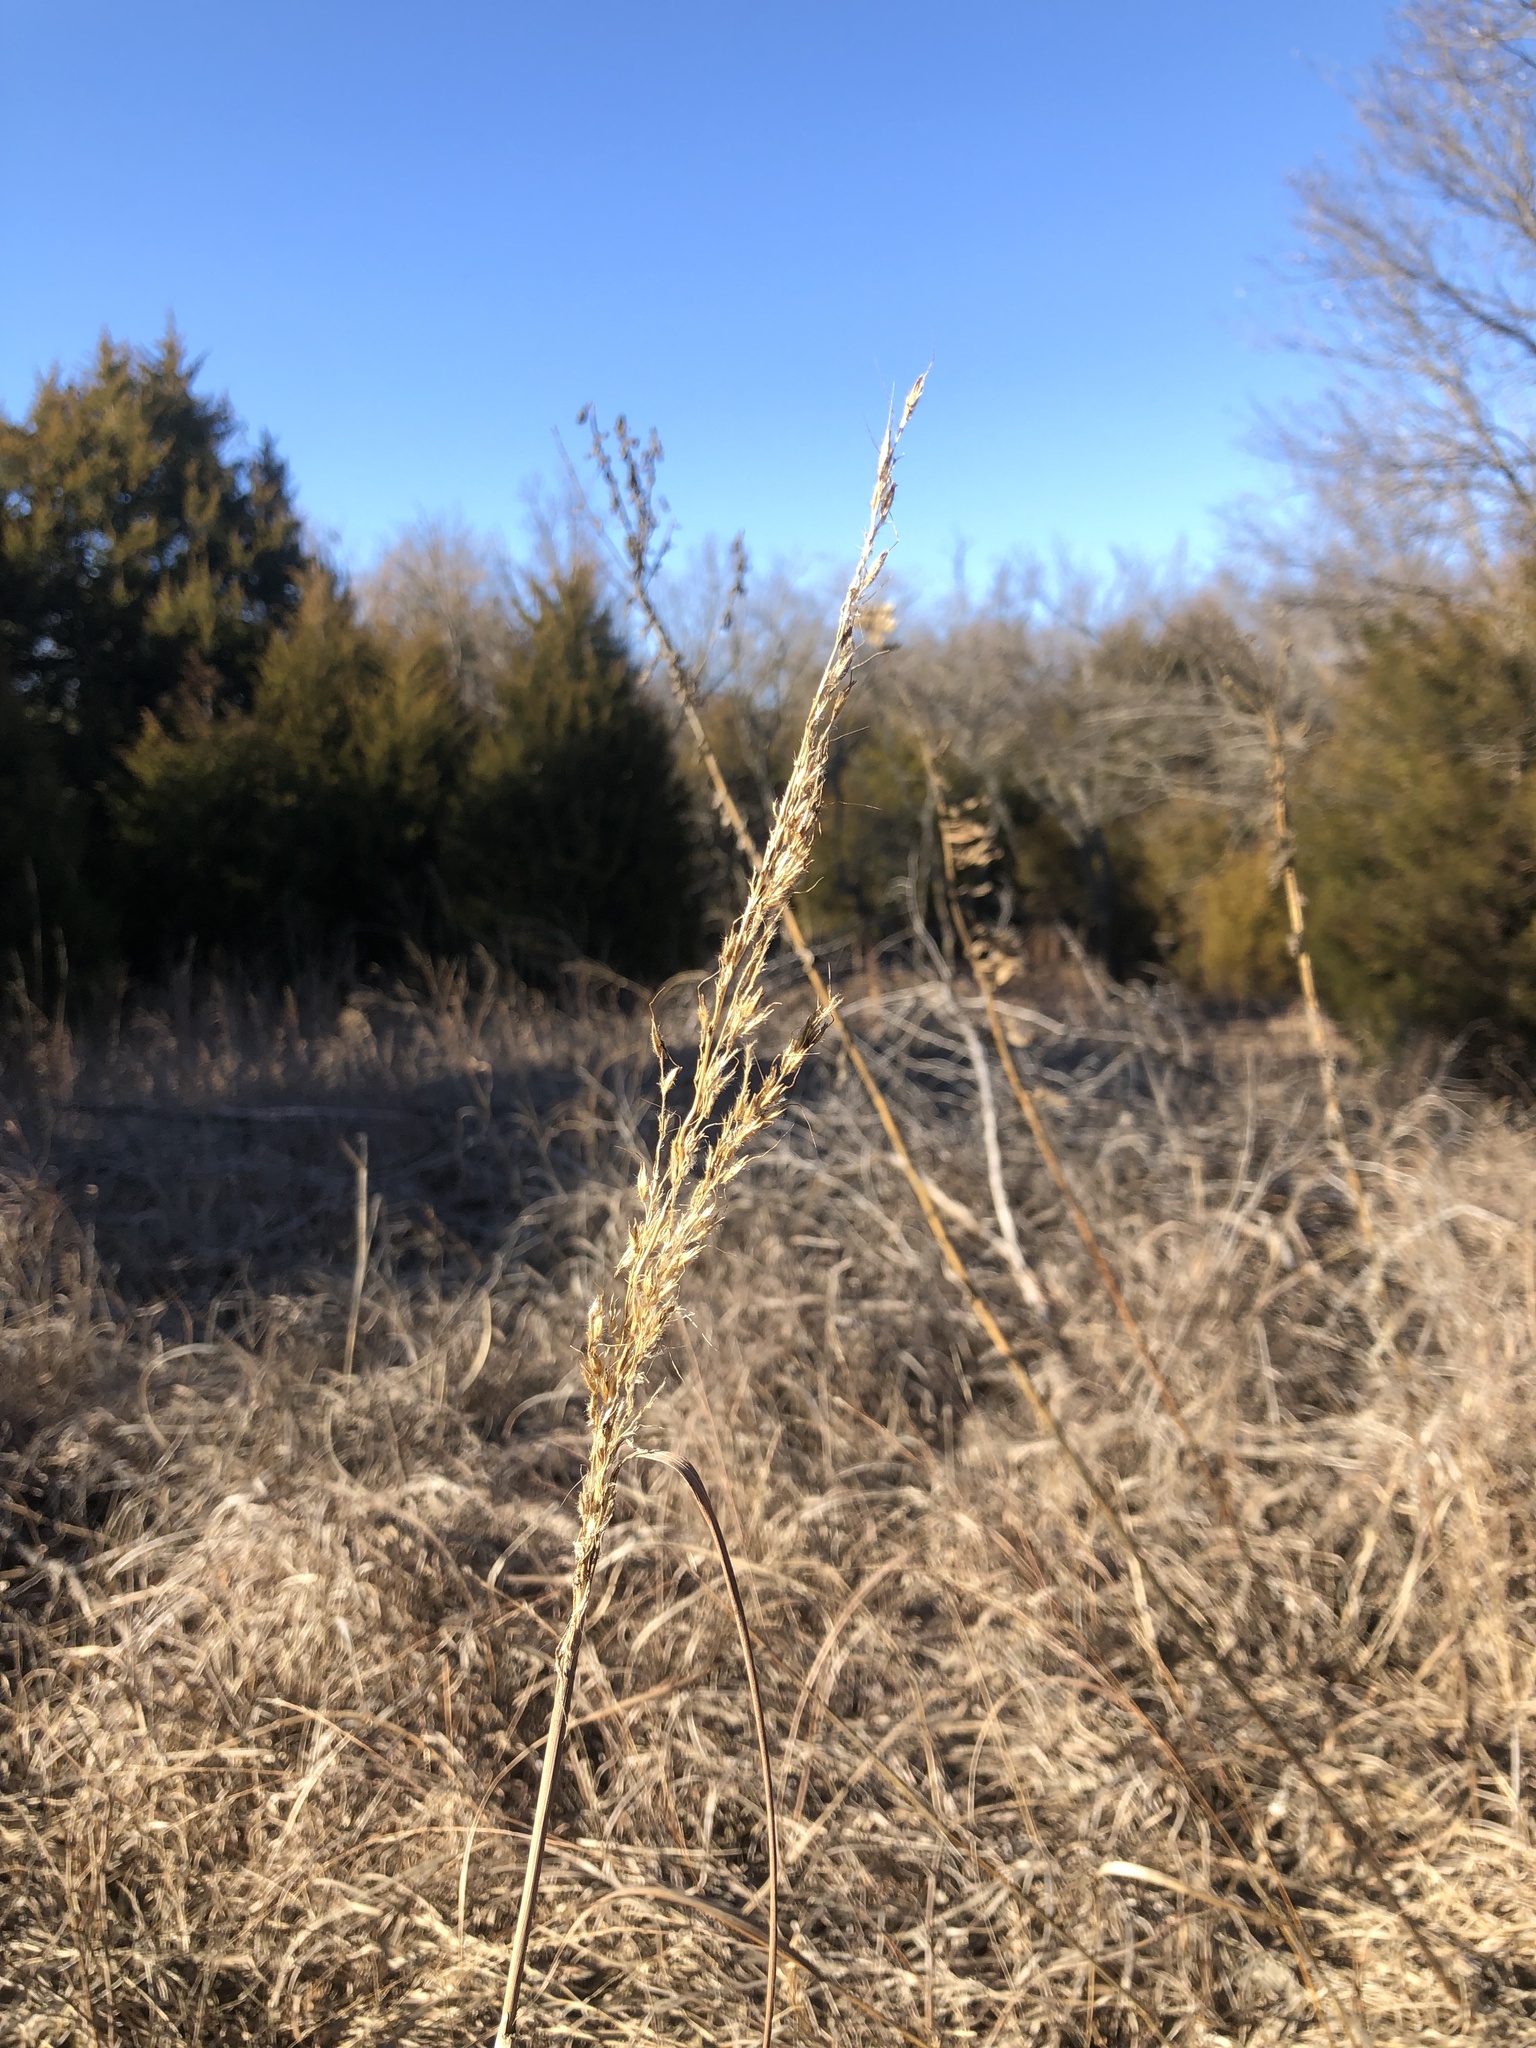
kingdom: Plantae
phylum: Tracheophyta
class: Liliopsida
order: Poales
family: Poaceae
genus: Sorghastrum
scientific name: Sorghastrum nutans
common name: Indian grass
